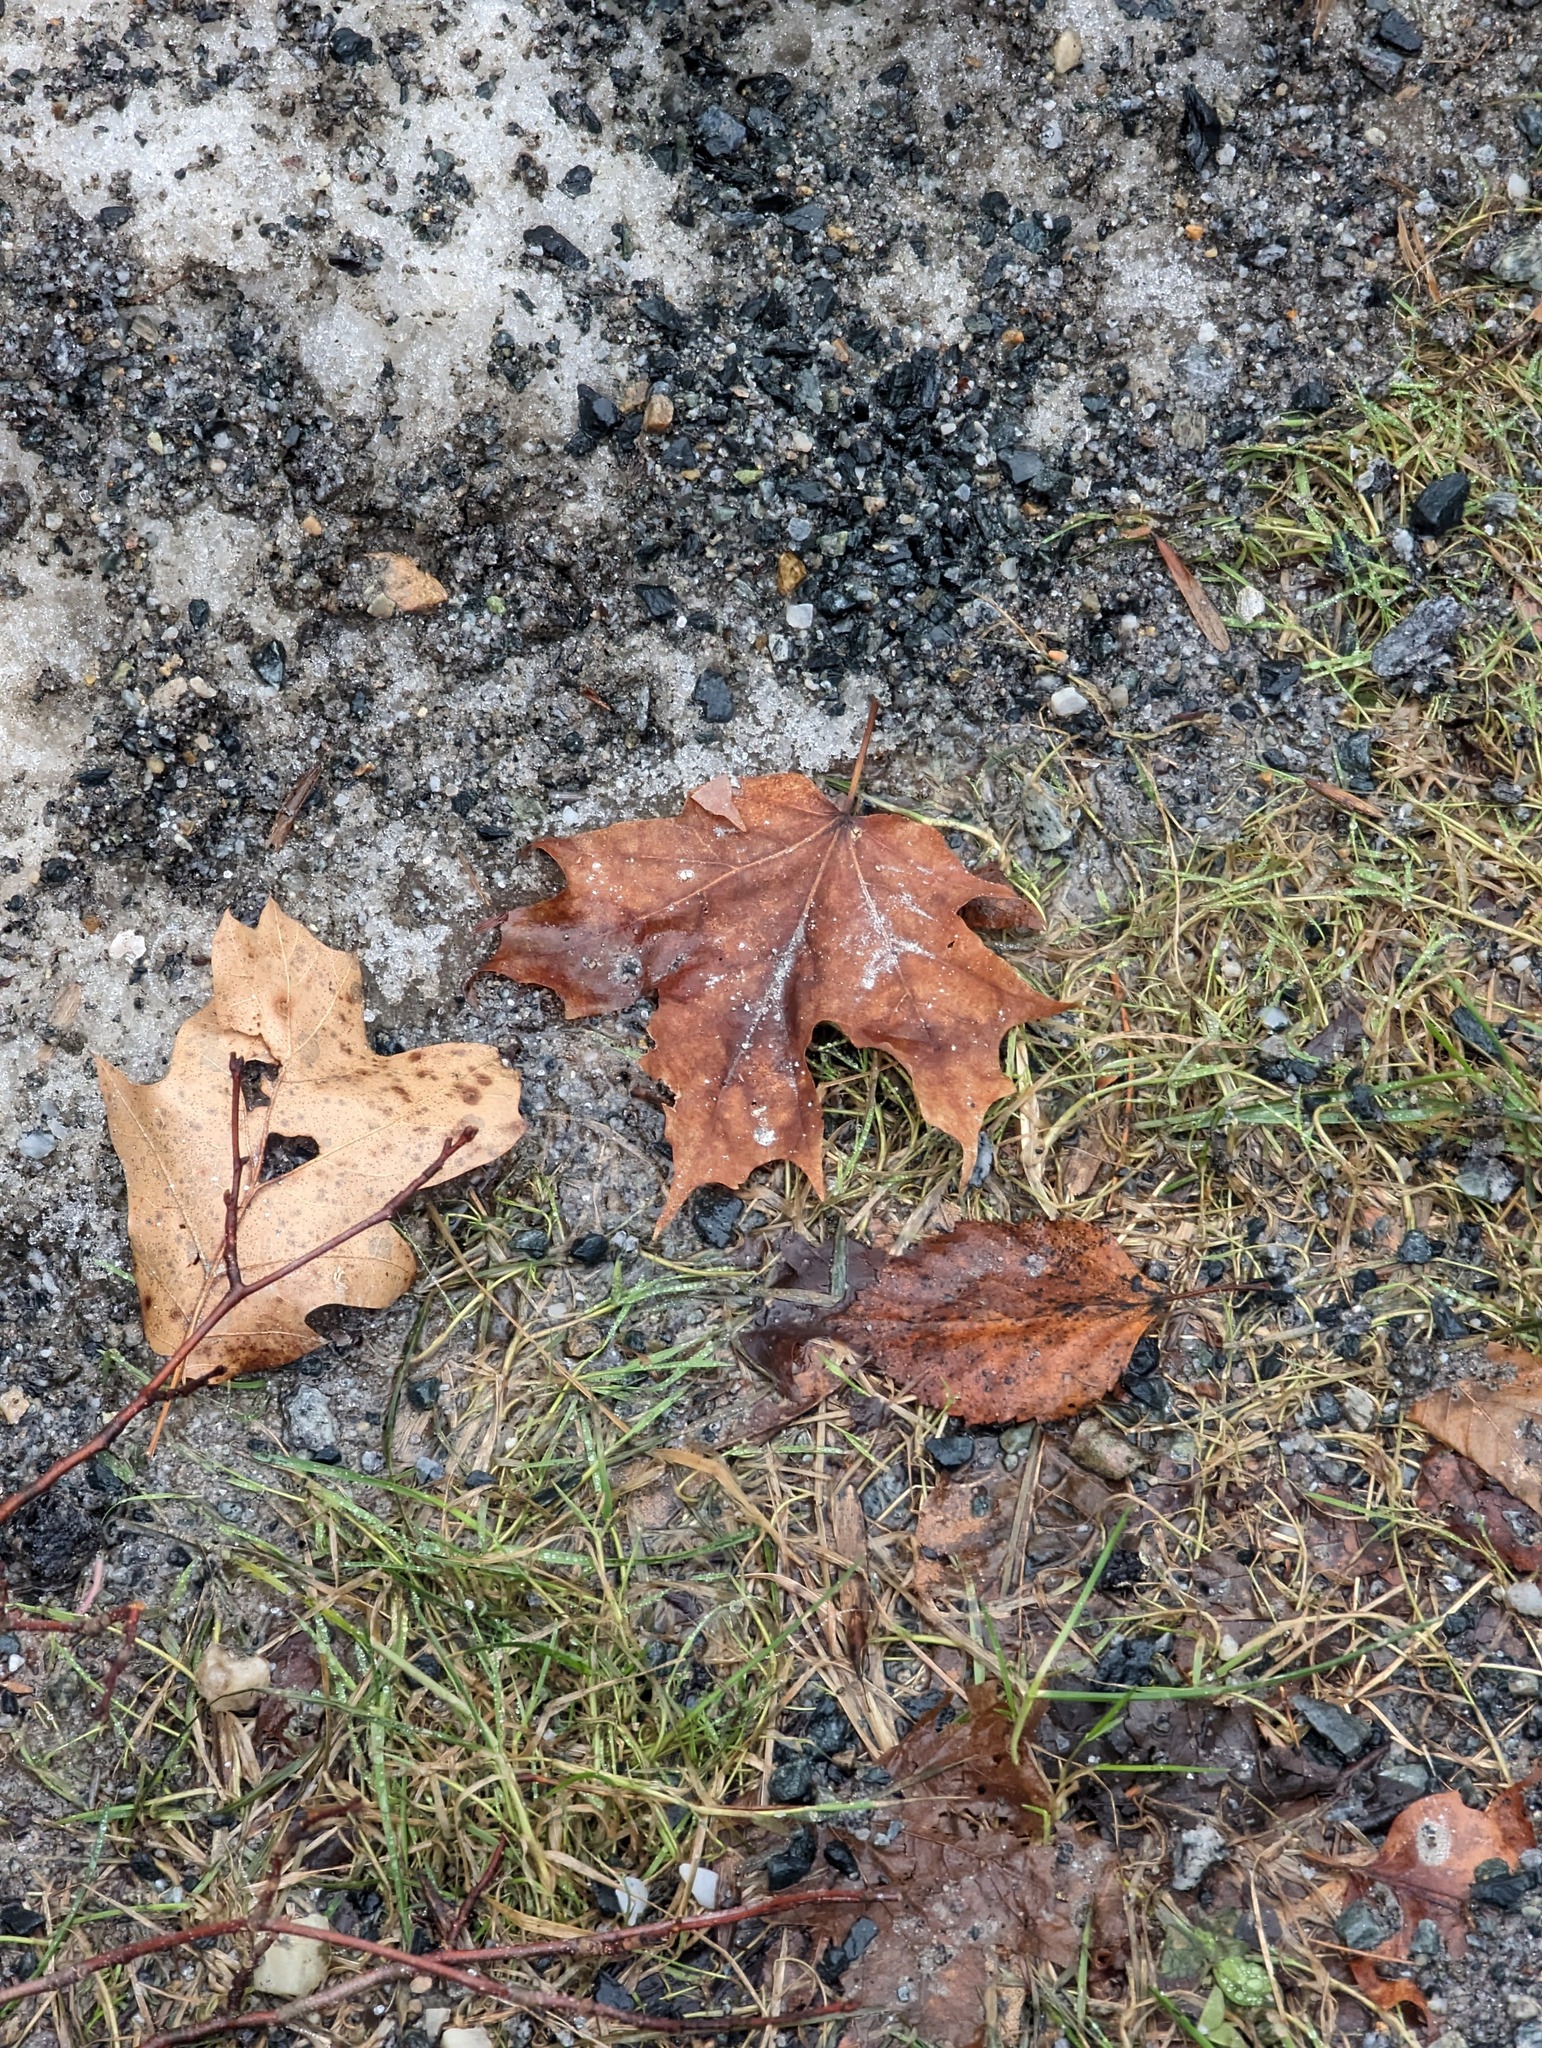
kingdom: Plantae
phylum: Tracheophyta
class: Magnoliopsida
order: Sapindales
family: Sapindaceae
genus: Acer
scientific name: Acer saccharum
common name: Sugar maple
